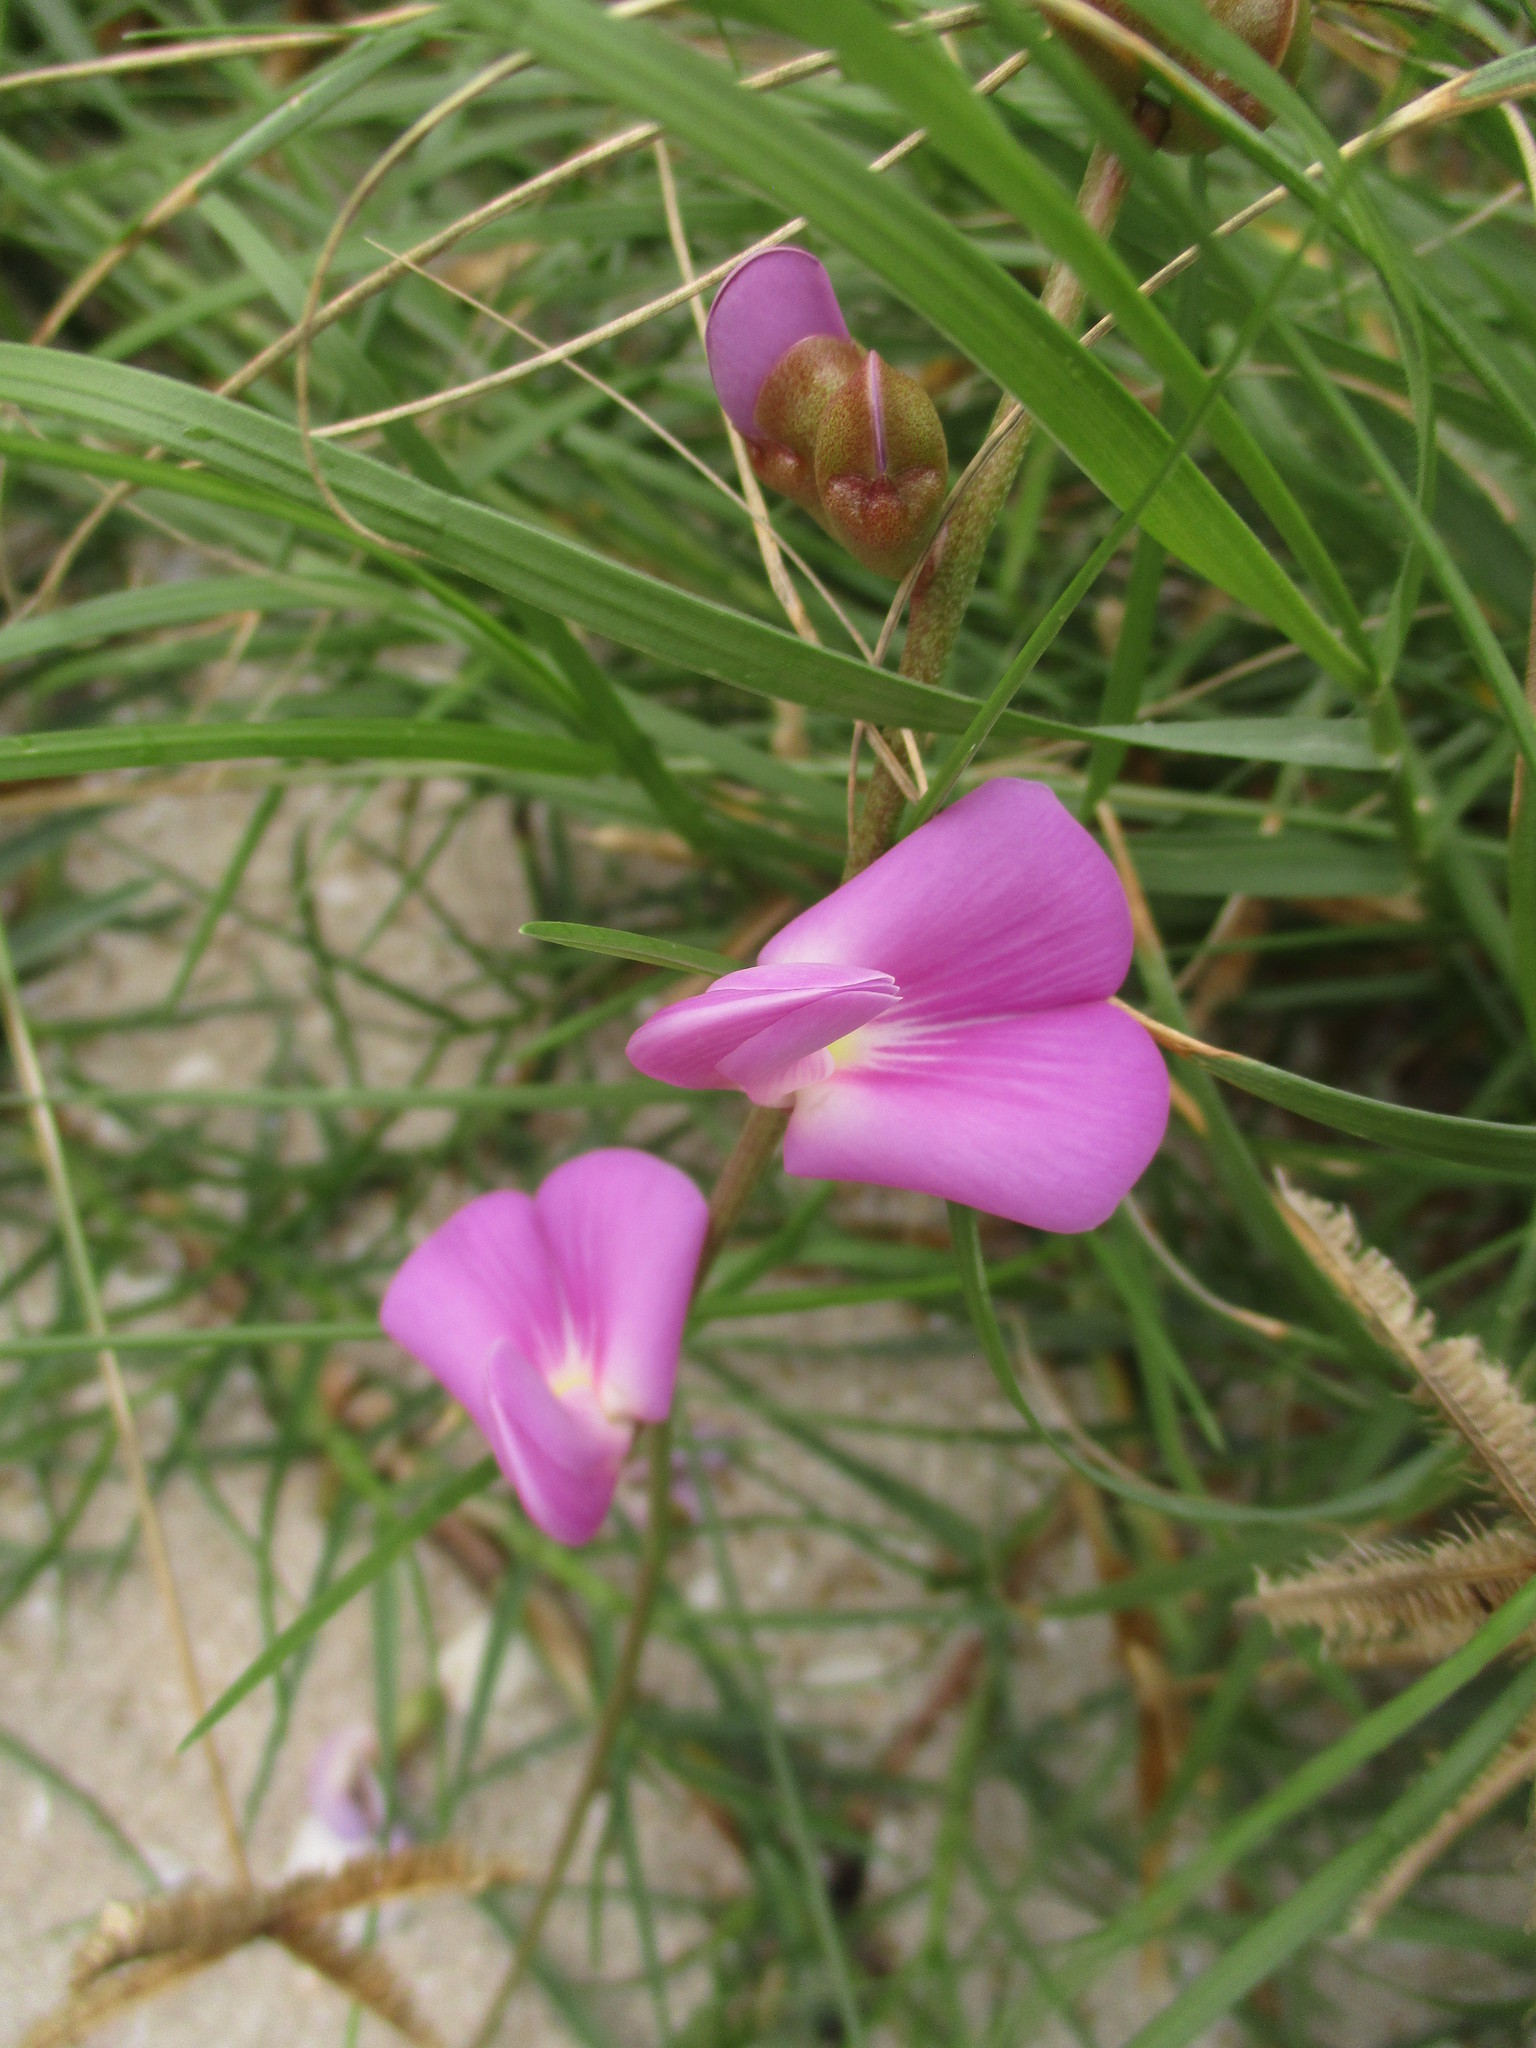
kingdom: Plantae
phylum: Tracheophyta
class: Magnoliopsida
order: Fabales
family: Fabaceae
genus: Canavalia
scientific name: Canavalia rosea
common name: Beach-bean
